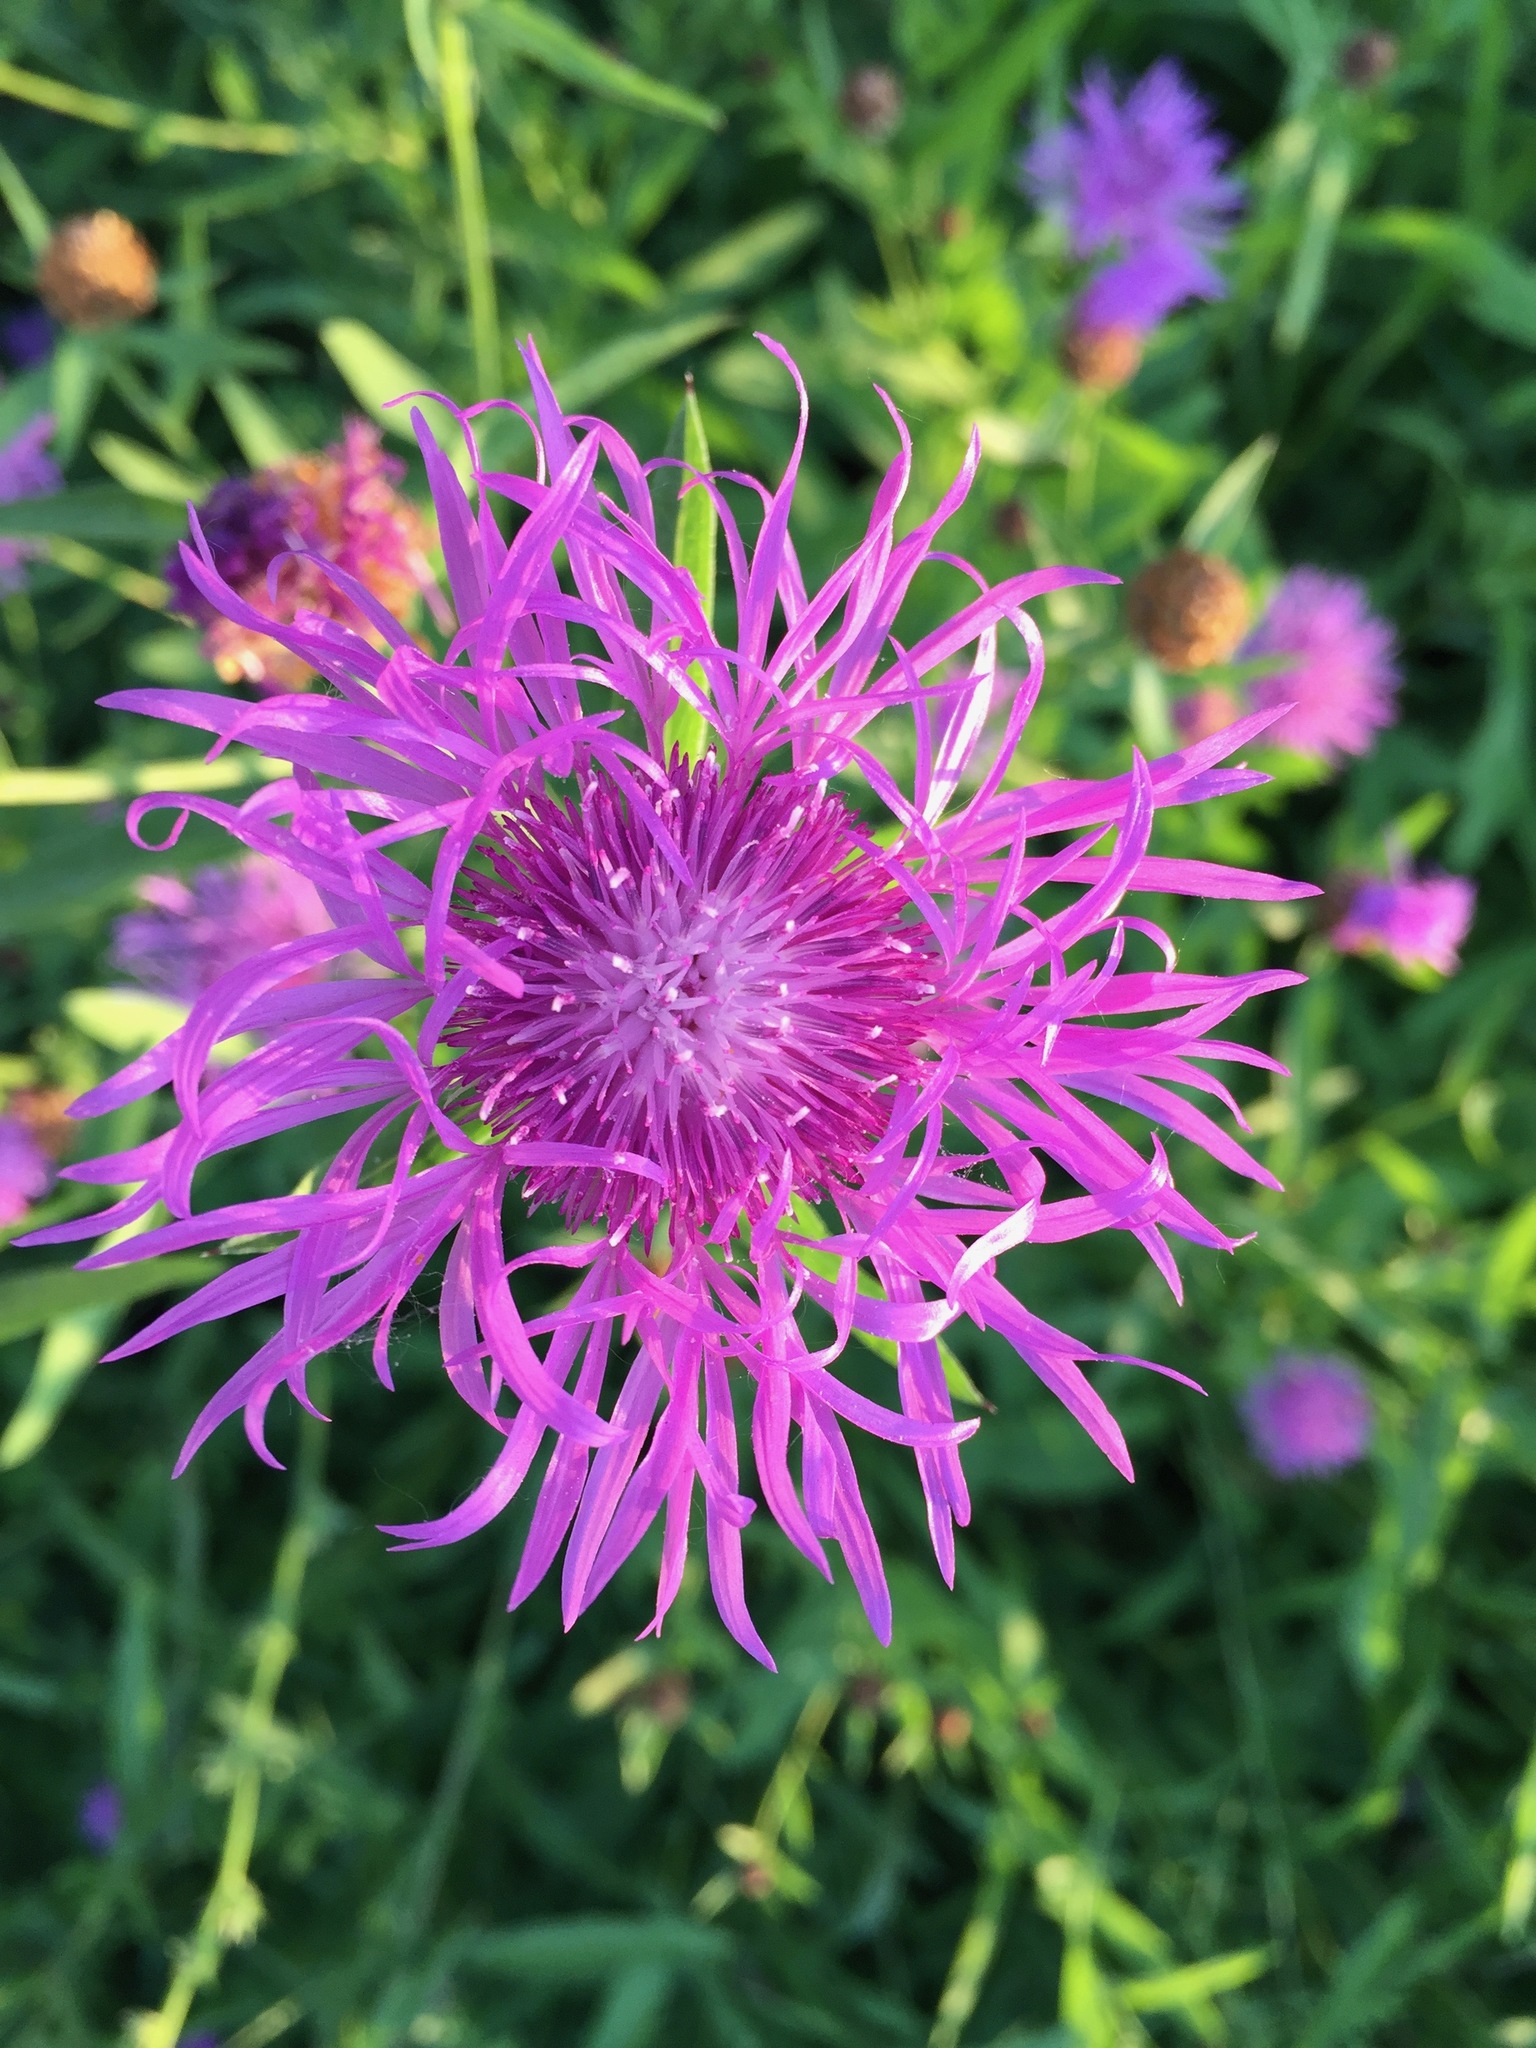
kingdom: Plantae
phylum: Tracheophyta
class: Magnoliopsida
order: Asterales
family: Asteraceae
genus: Centaurea
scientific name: Centaurea jacea
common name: Brown knapweed
